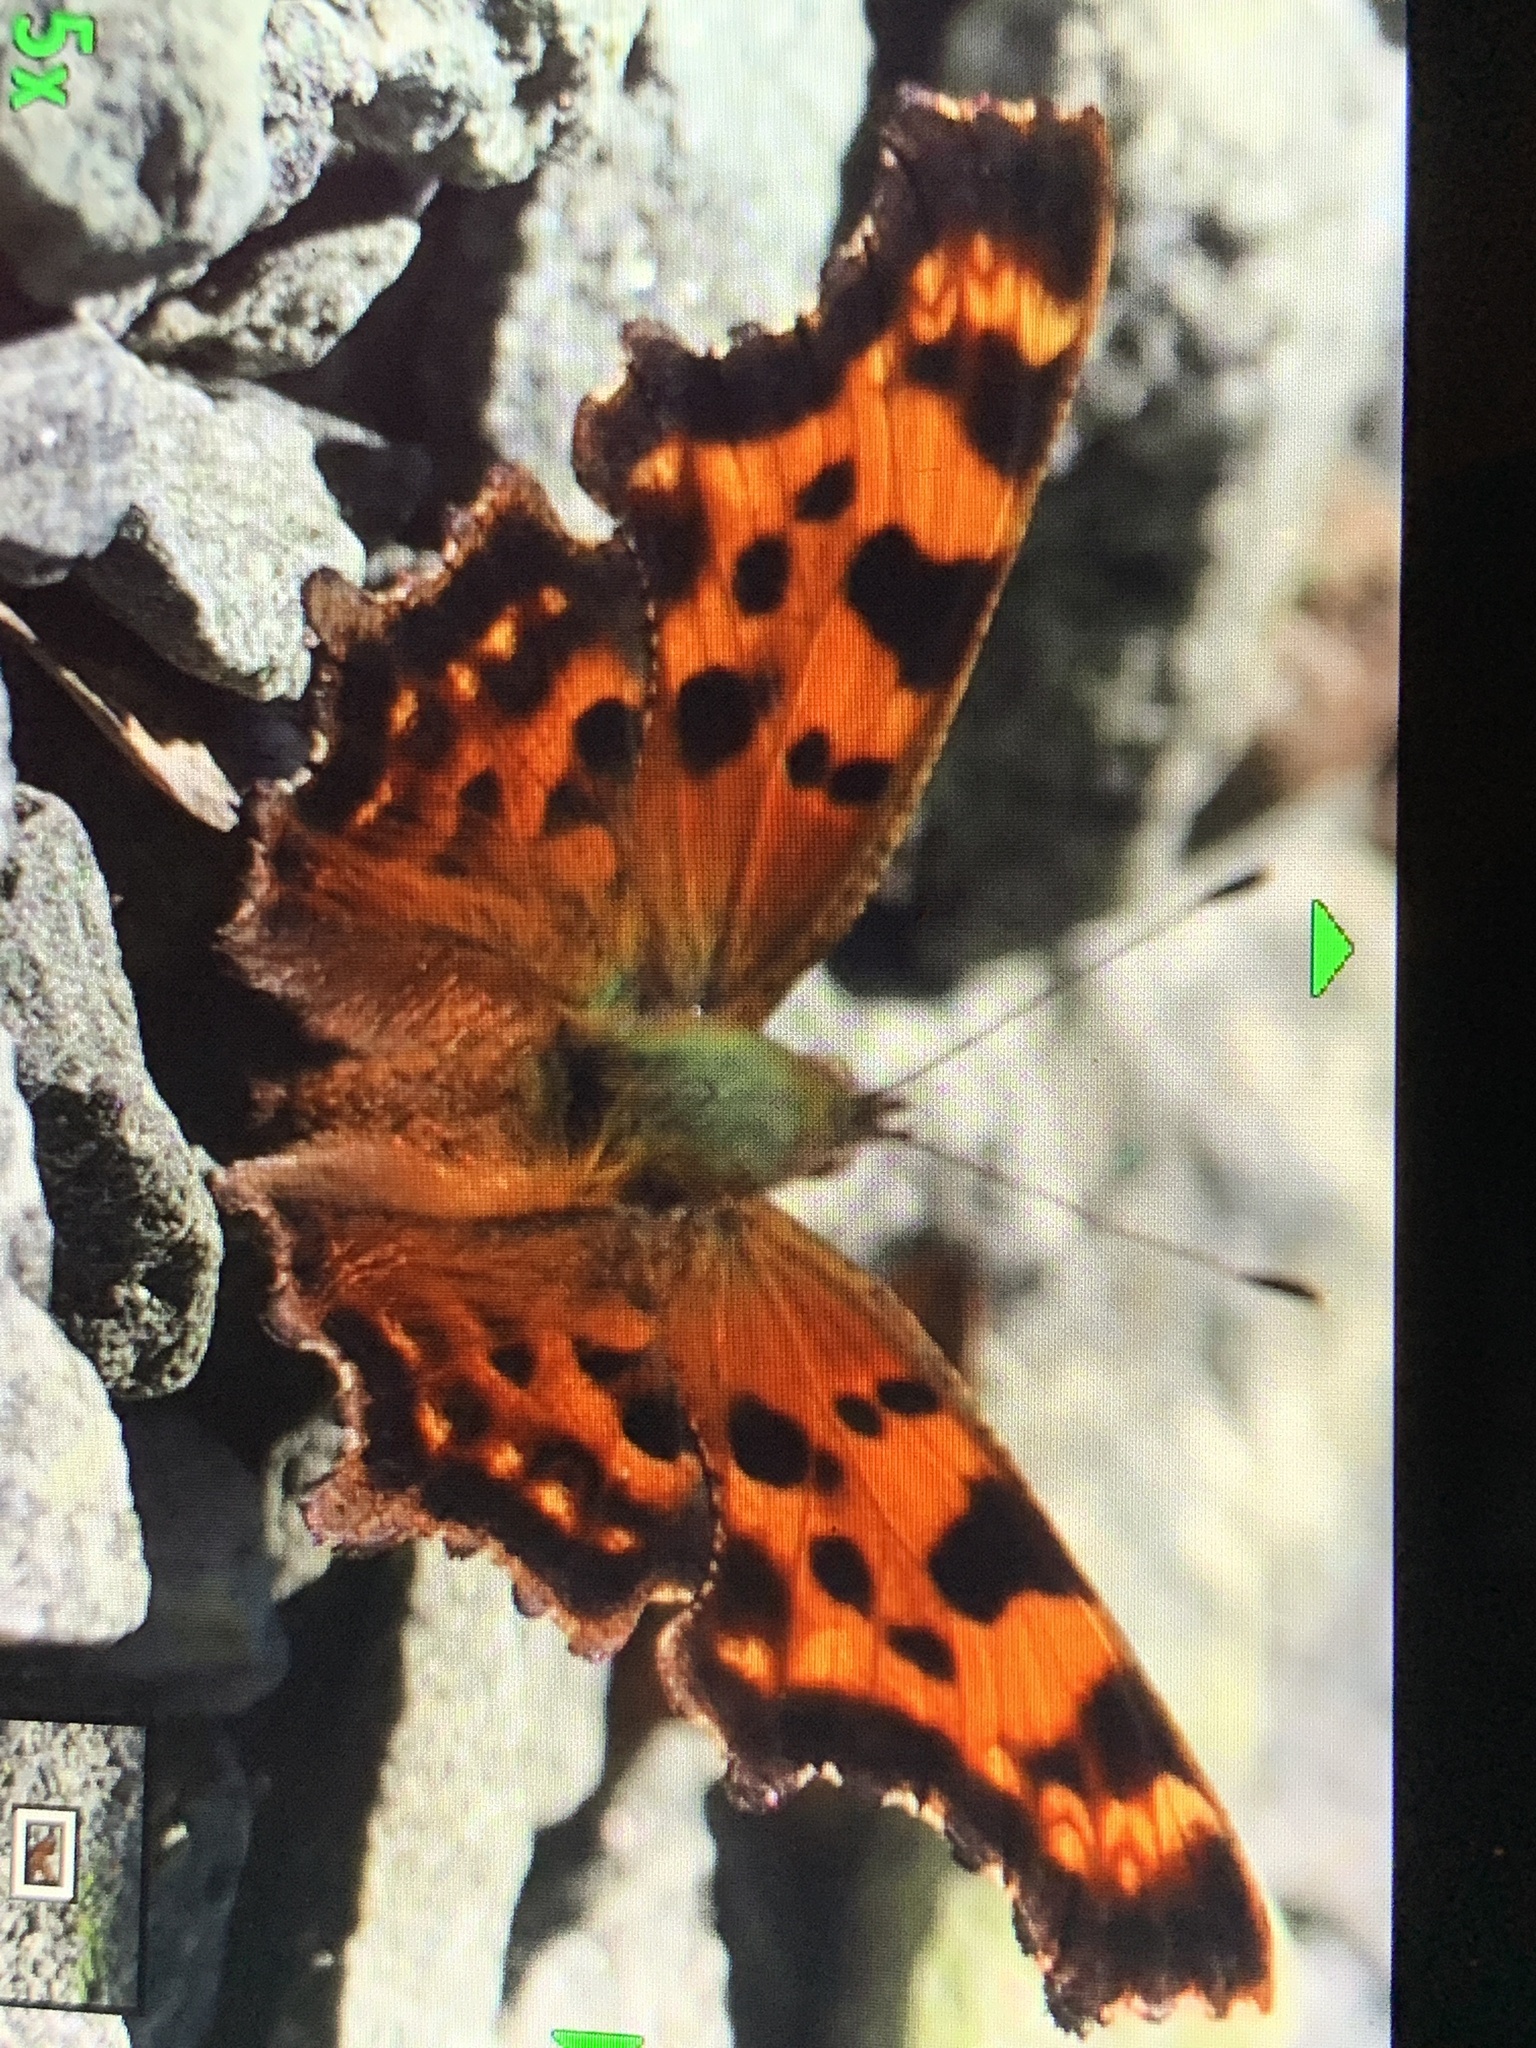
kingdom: Animalia
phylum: Arthropoda
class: Insecta
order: Lepidoptera
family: Nymphalidae
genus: Polygonia
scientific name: Polygonia faunus
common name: Green comma
